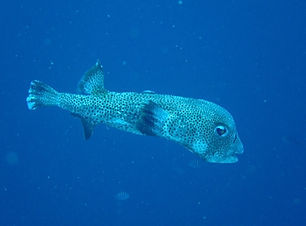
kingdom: Animalia
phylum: Chordata
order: Tetraodontiformes
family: Diodontidae
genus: Diodon
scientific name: Diodon hystrix
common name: Giant porcupinefish
